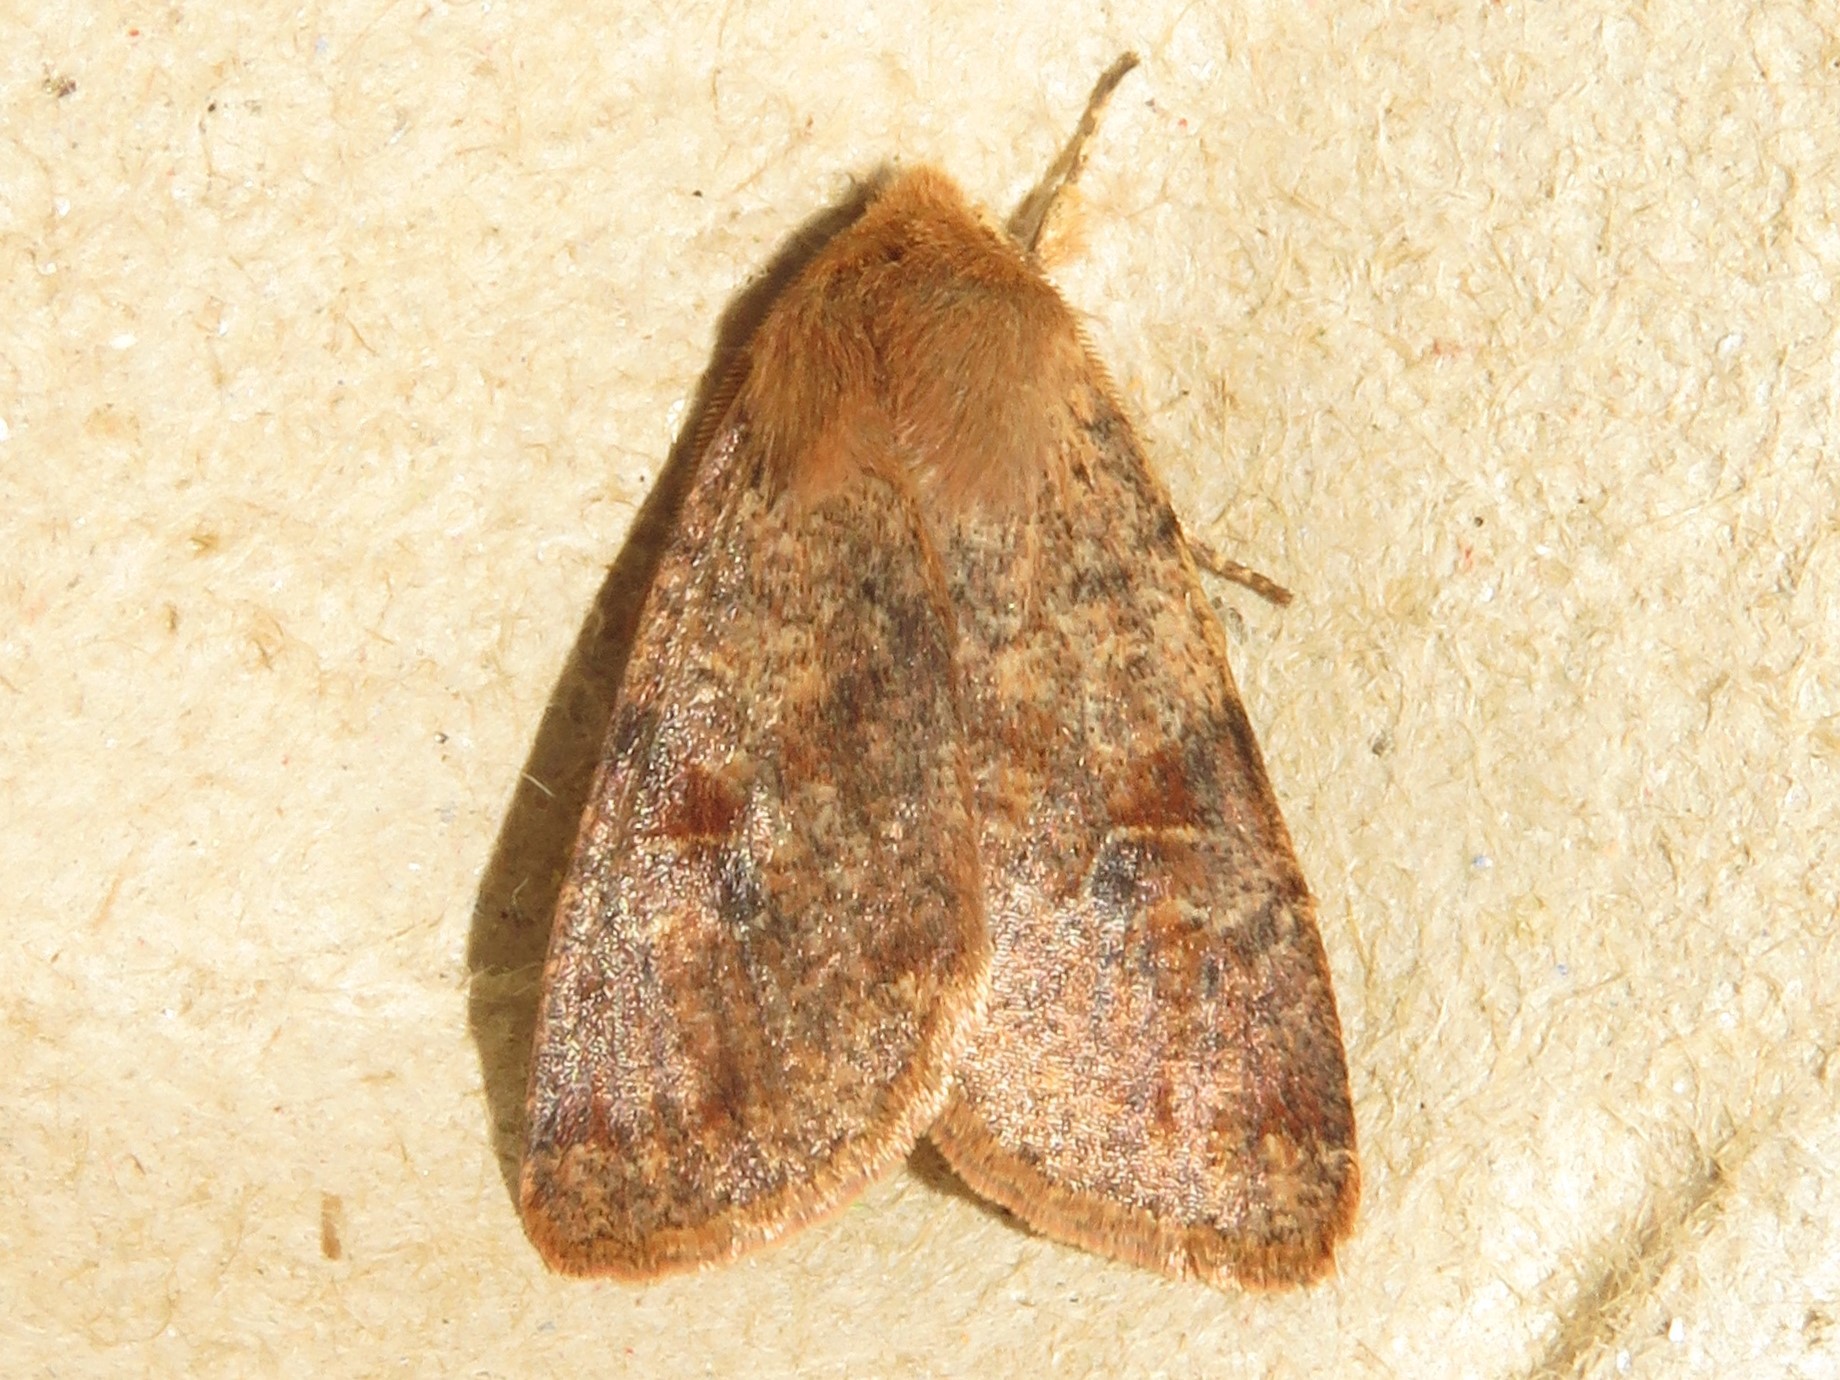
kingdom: Animalia
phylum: Arthropoda
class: Insecta
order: Lepidoptera
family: Noctuidae
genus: Orthosia
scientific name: Orthosia rubescens
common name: Ruby quaker
